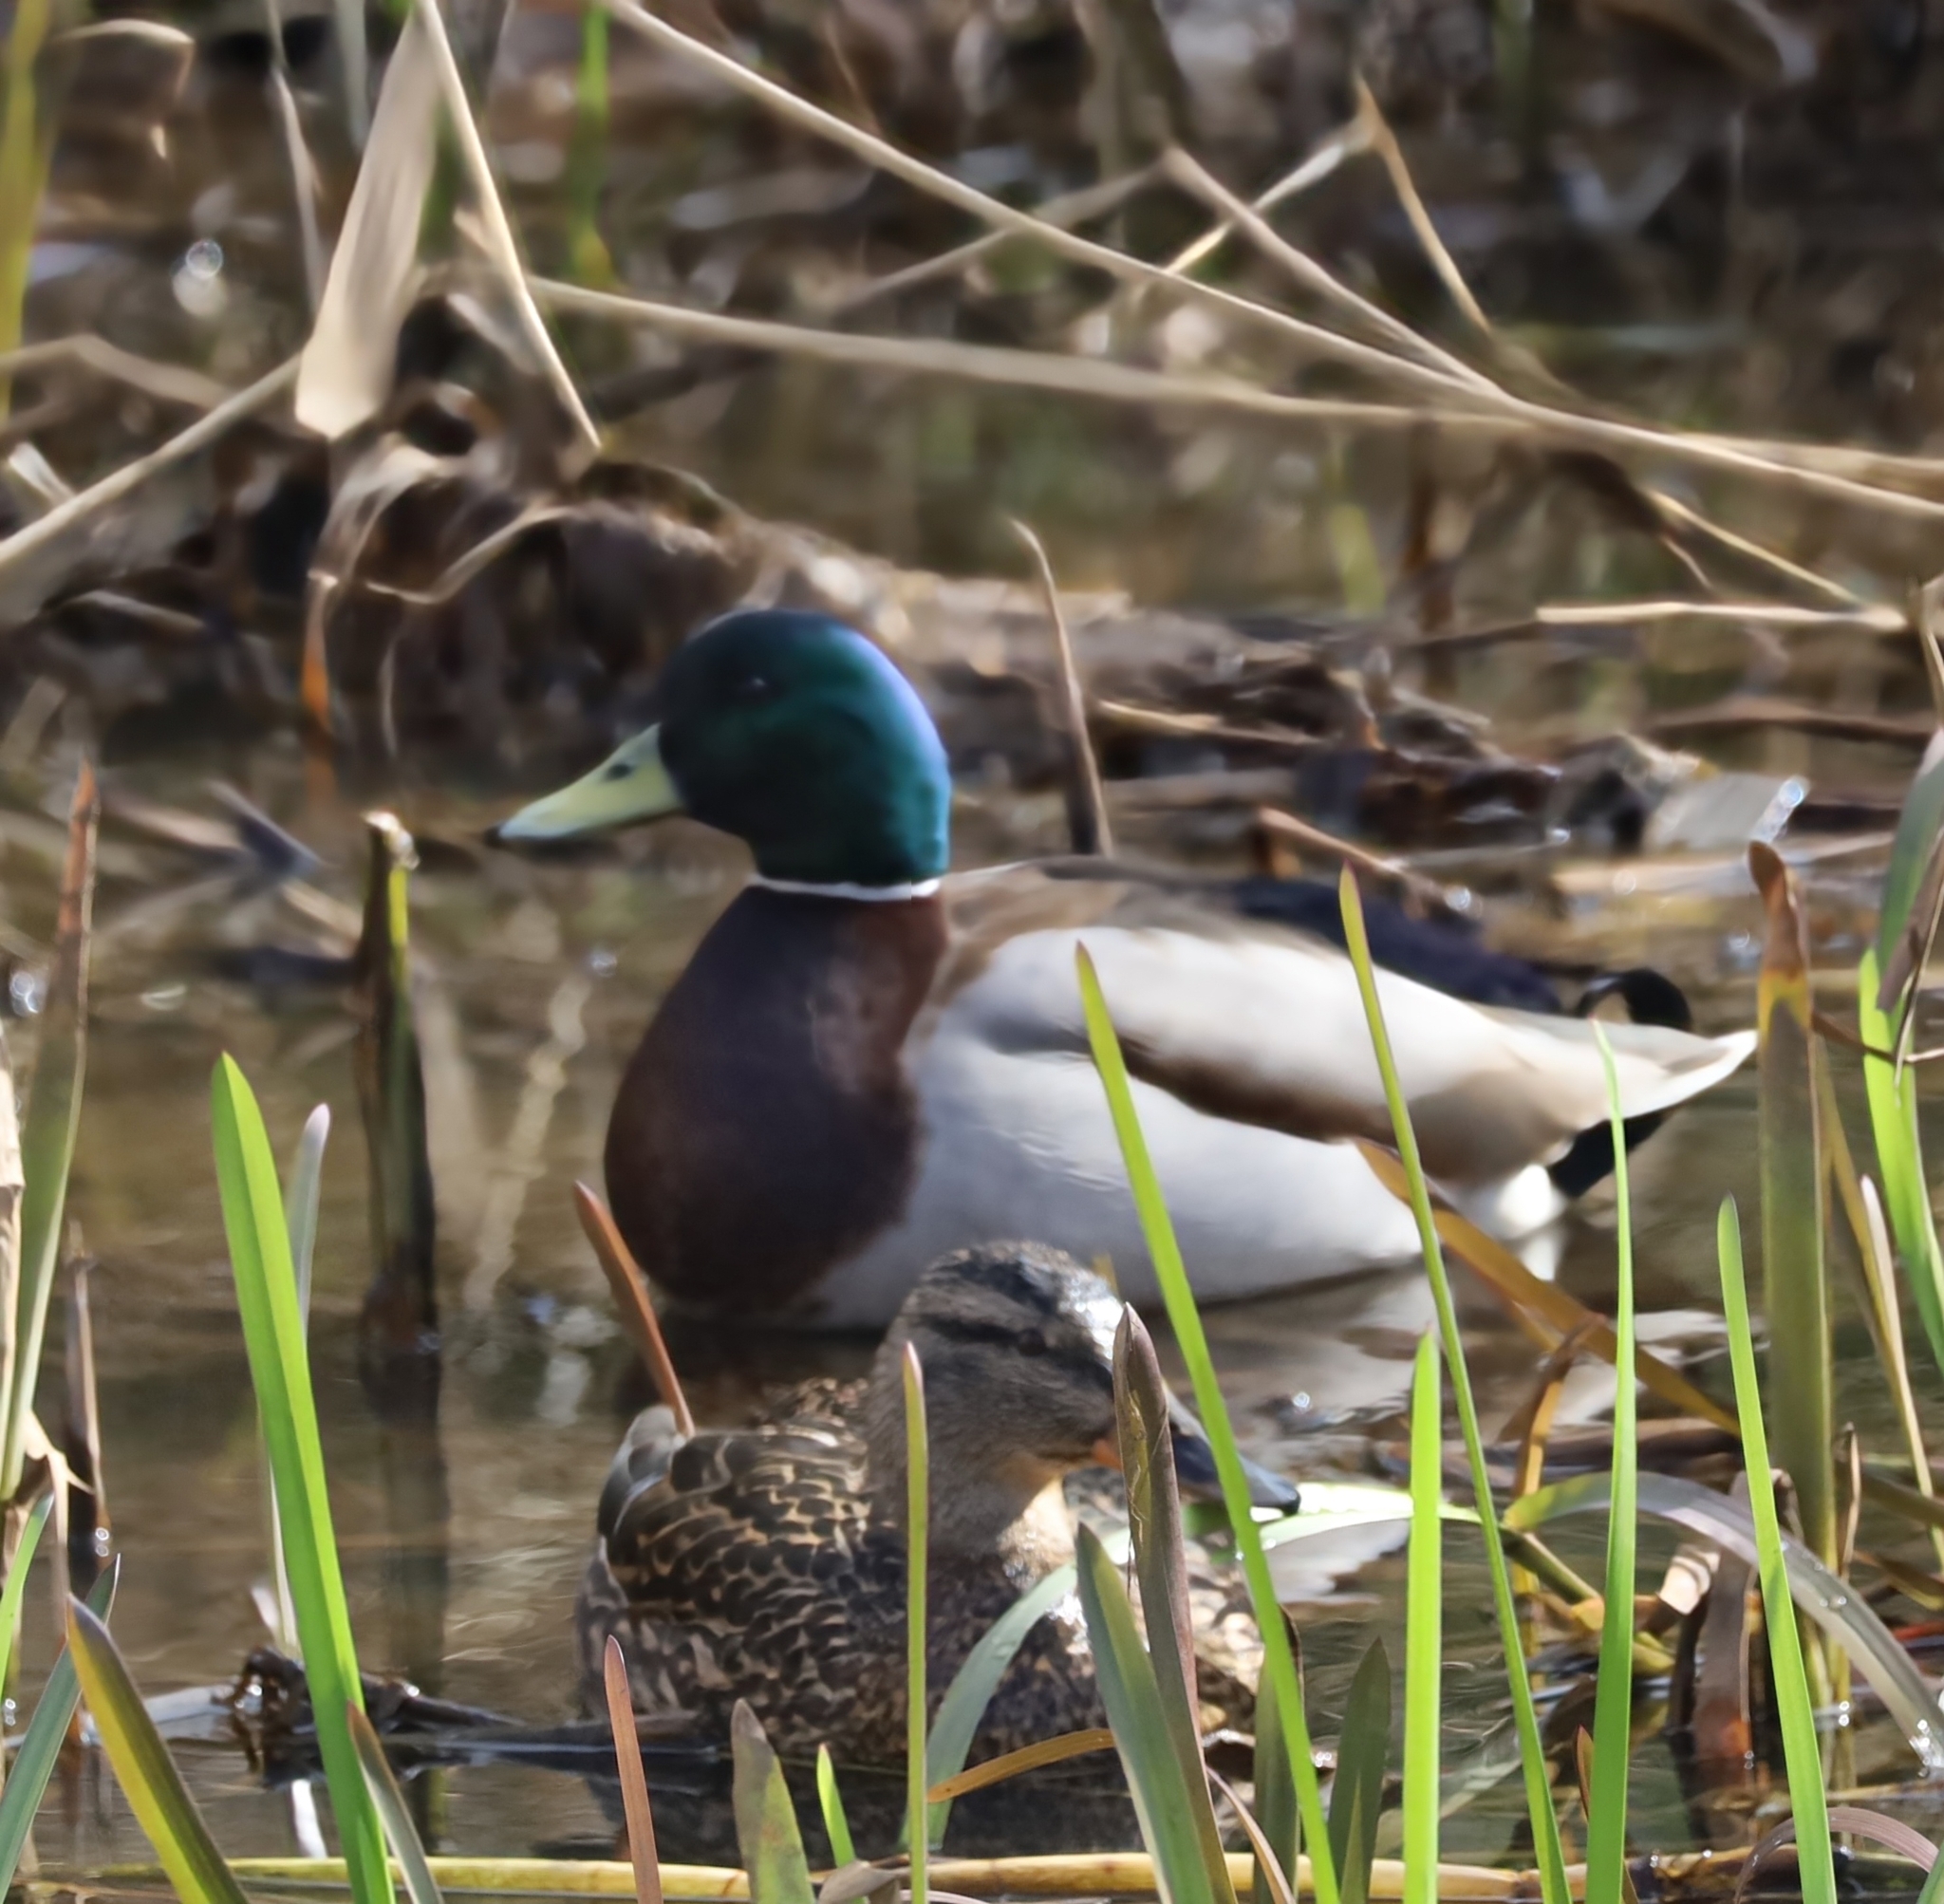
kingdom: Animalia
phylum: Chordata
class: Aves
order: Anseriformes
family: Anatidae
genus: Anas
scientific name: Anas platyrhynchos
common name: Mallard
